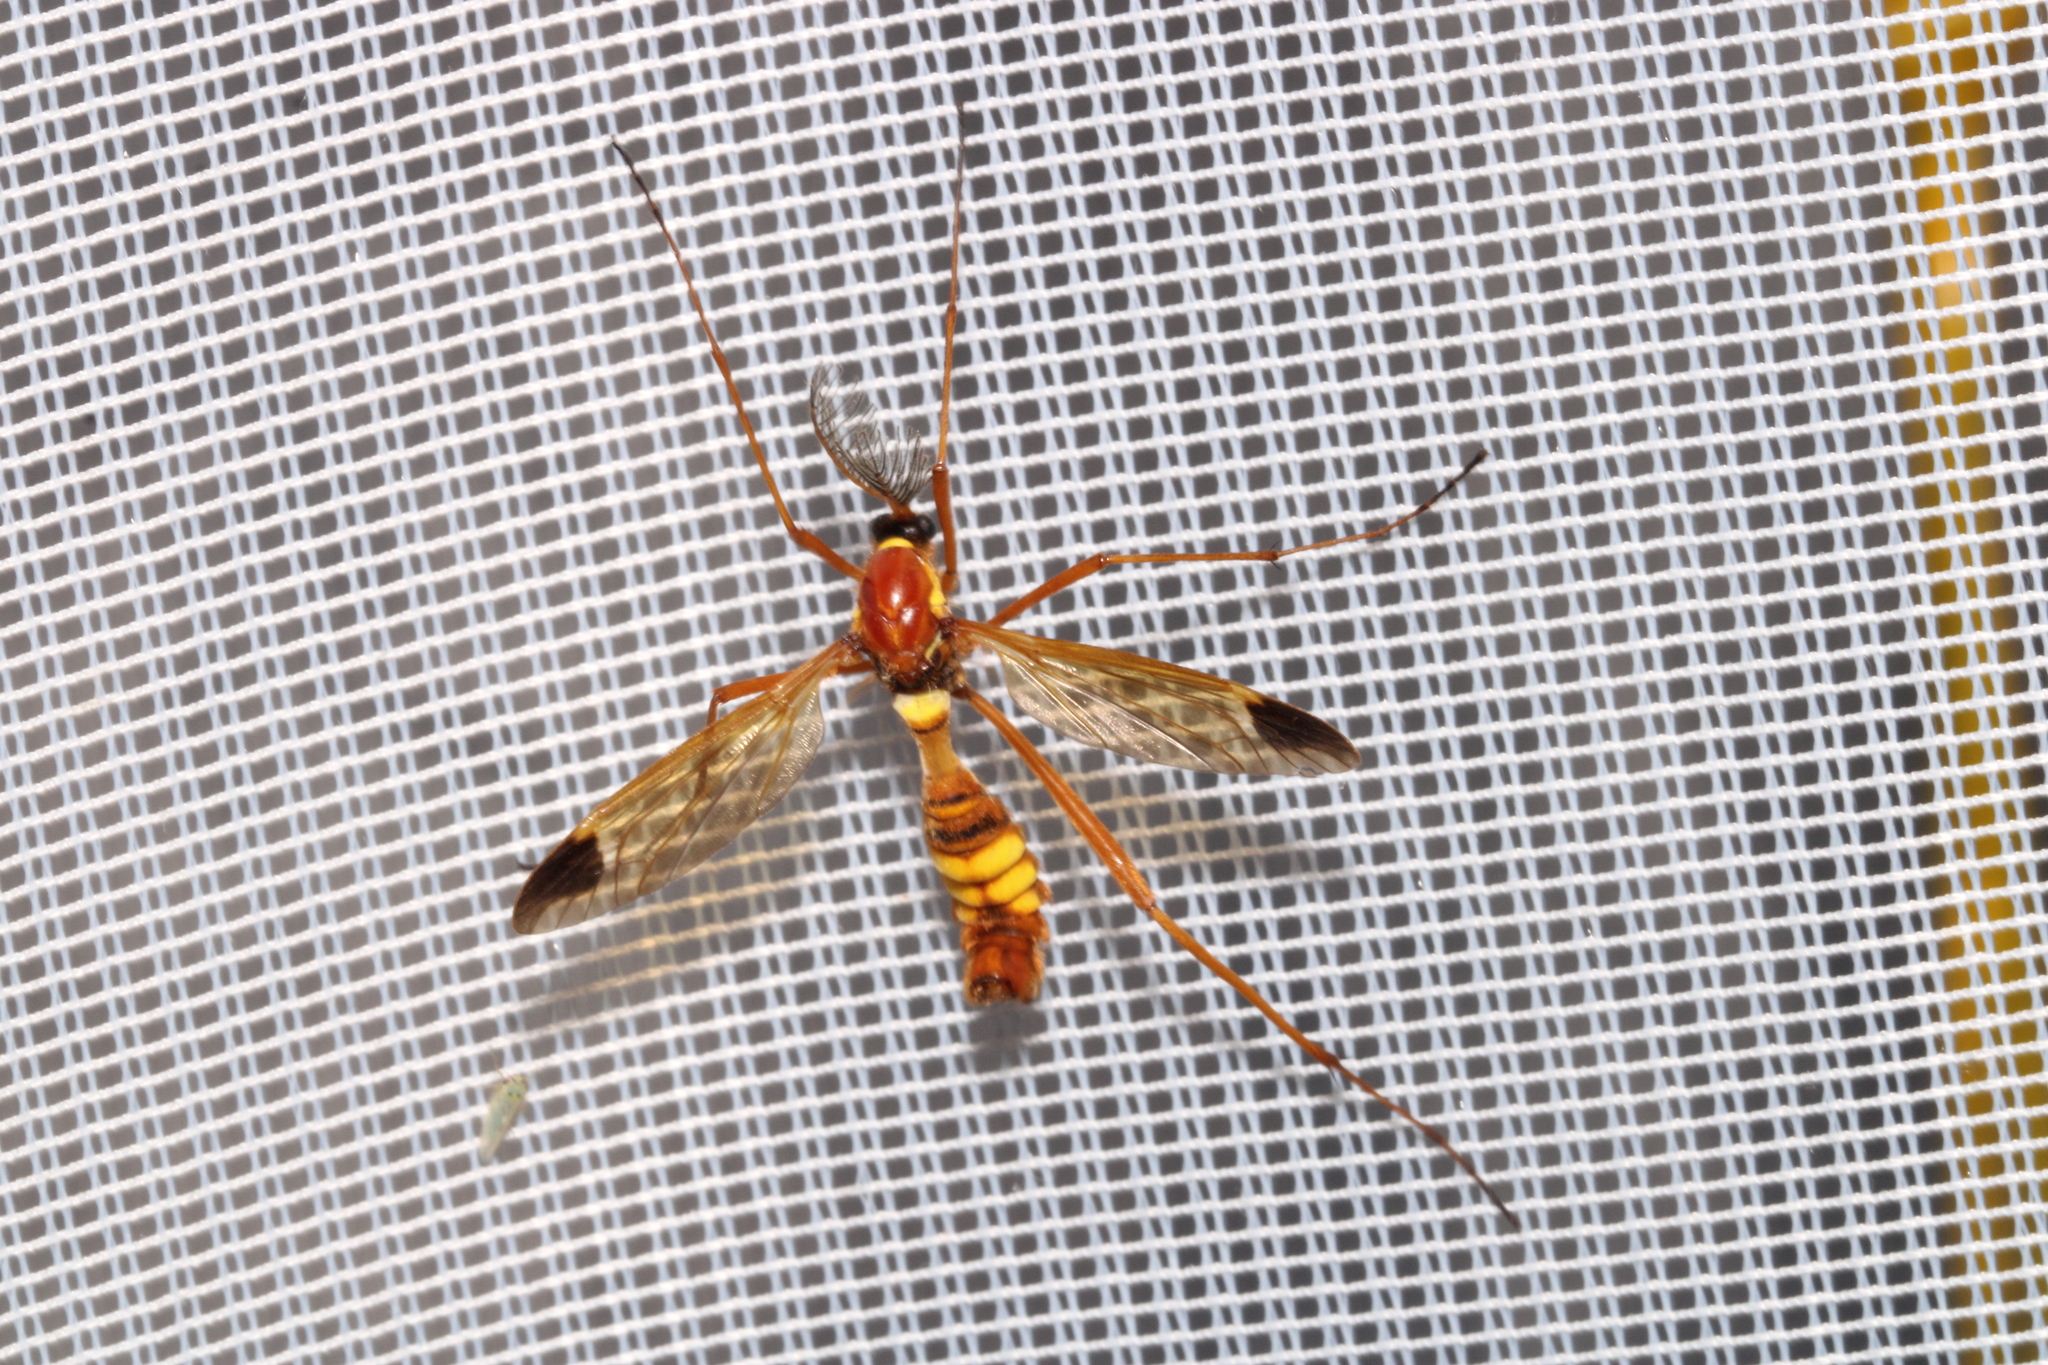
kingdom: Animalia
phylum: Arthropoda
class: Insecta
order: Diptera
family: Tipulidae
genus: Ctenophora
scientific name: Ctenophora ornata
